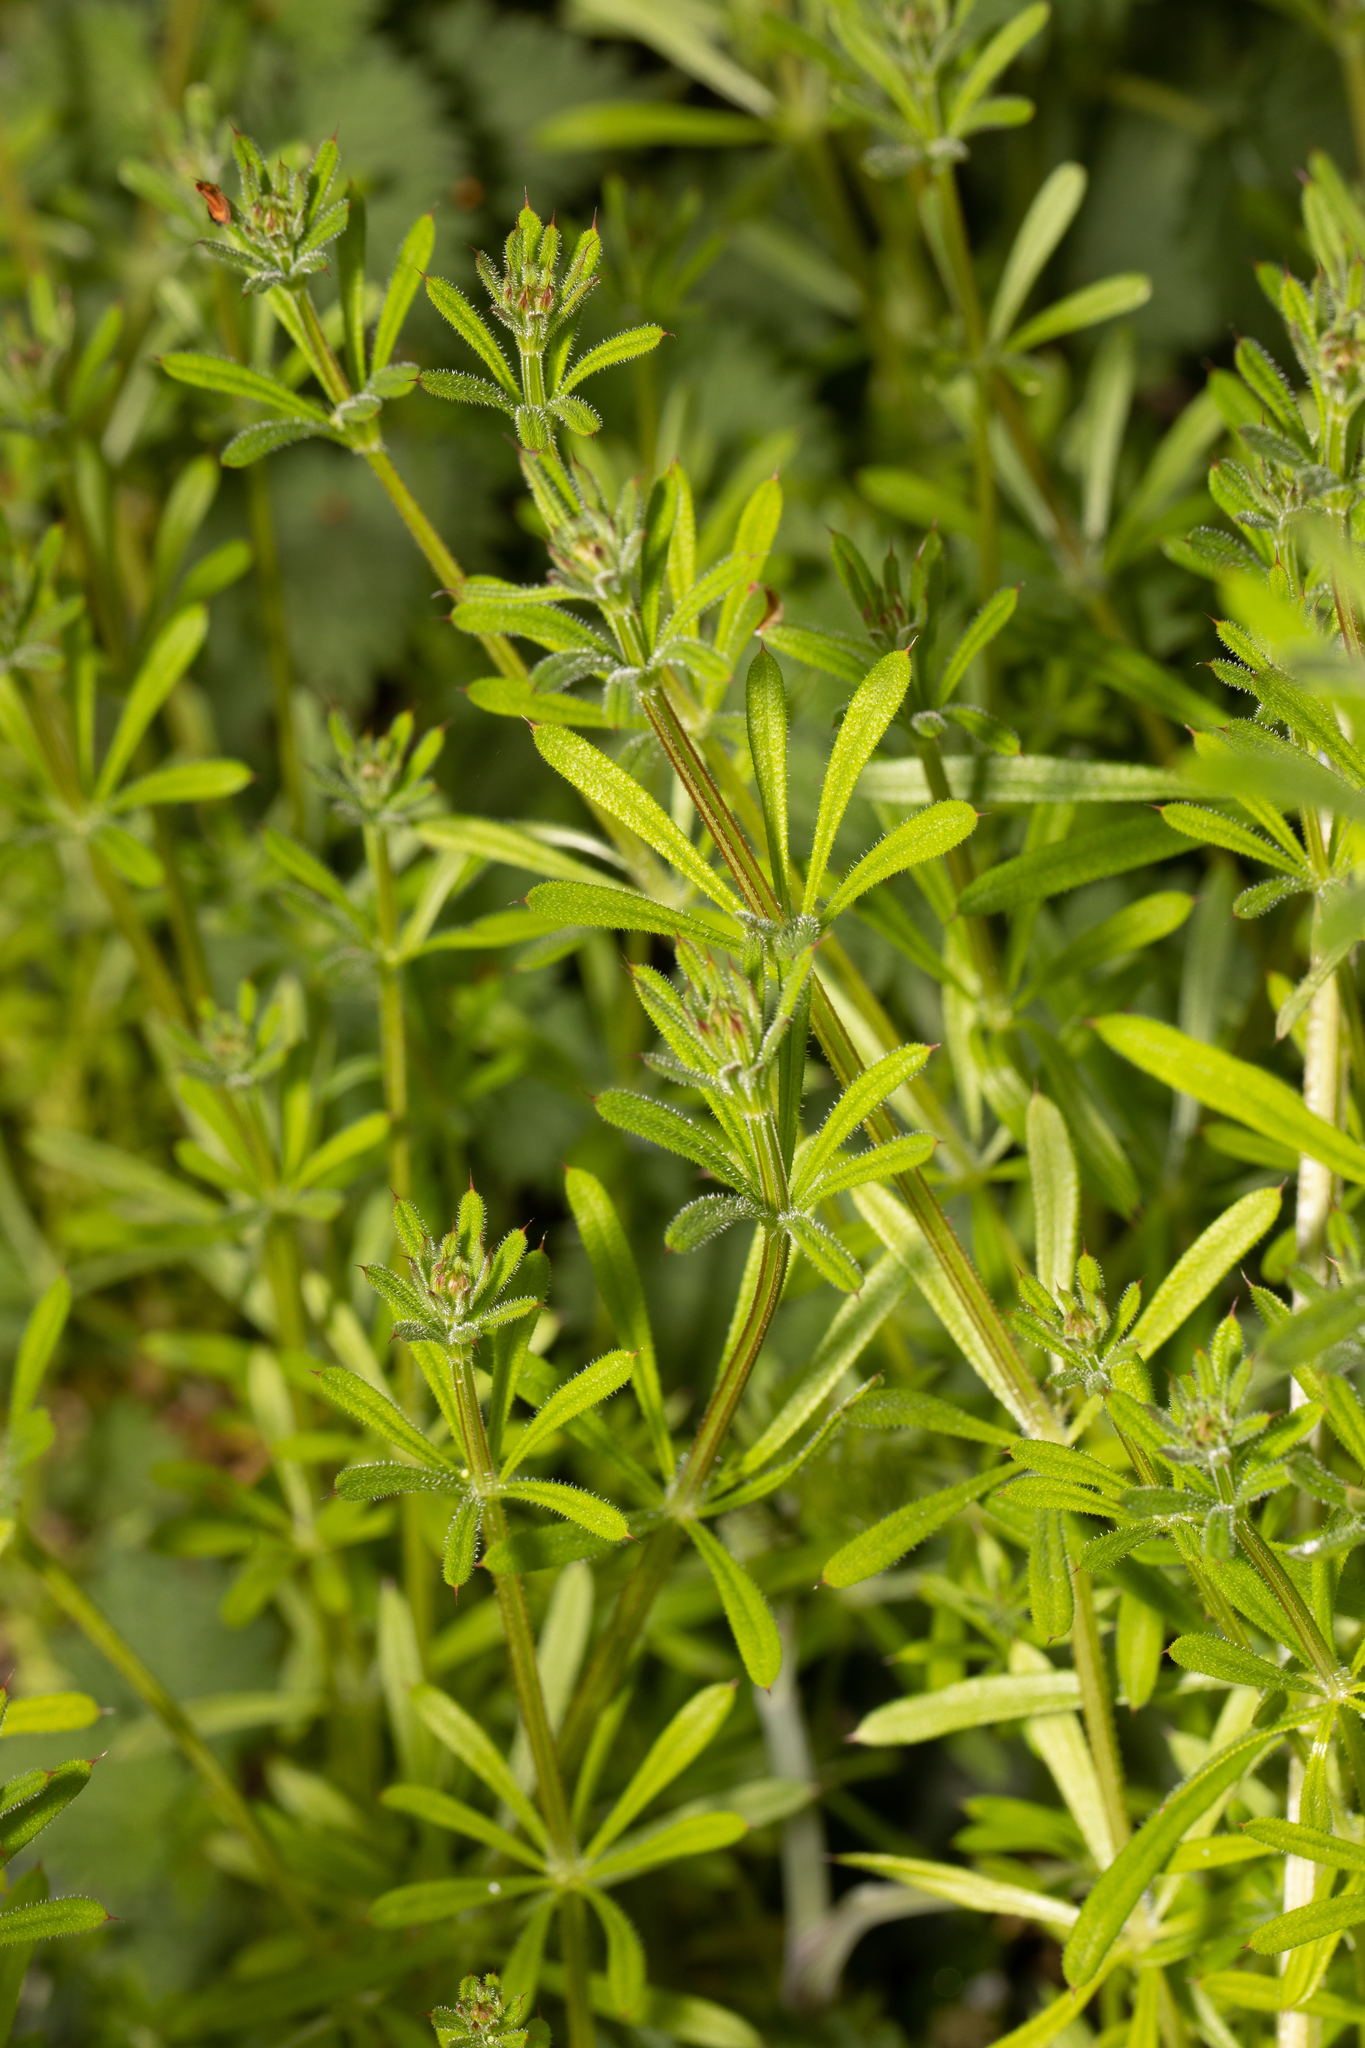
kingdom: Plantae
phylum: Tracheophyta
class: Magnoliopsida
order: Gentianales
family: Rubiaceae
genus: Galium
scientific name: Galium aparine
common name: Cleavers
